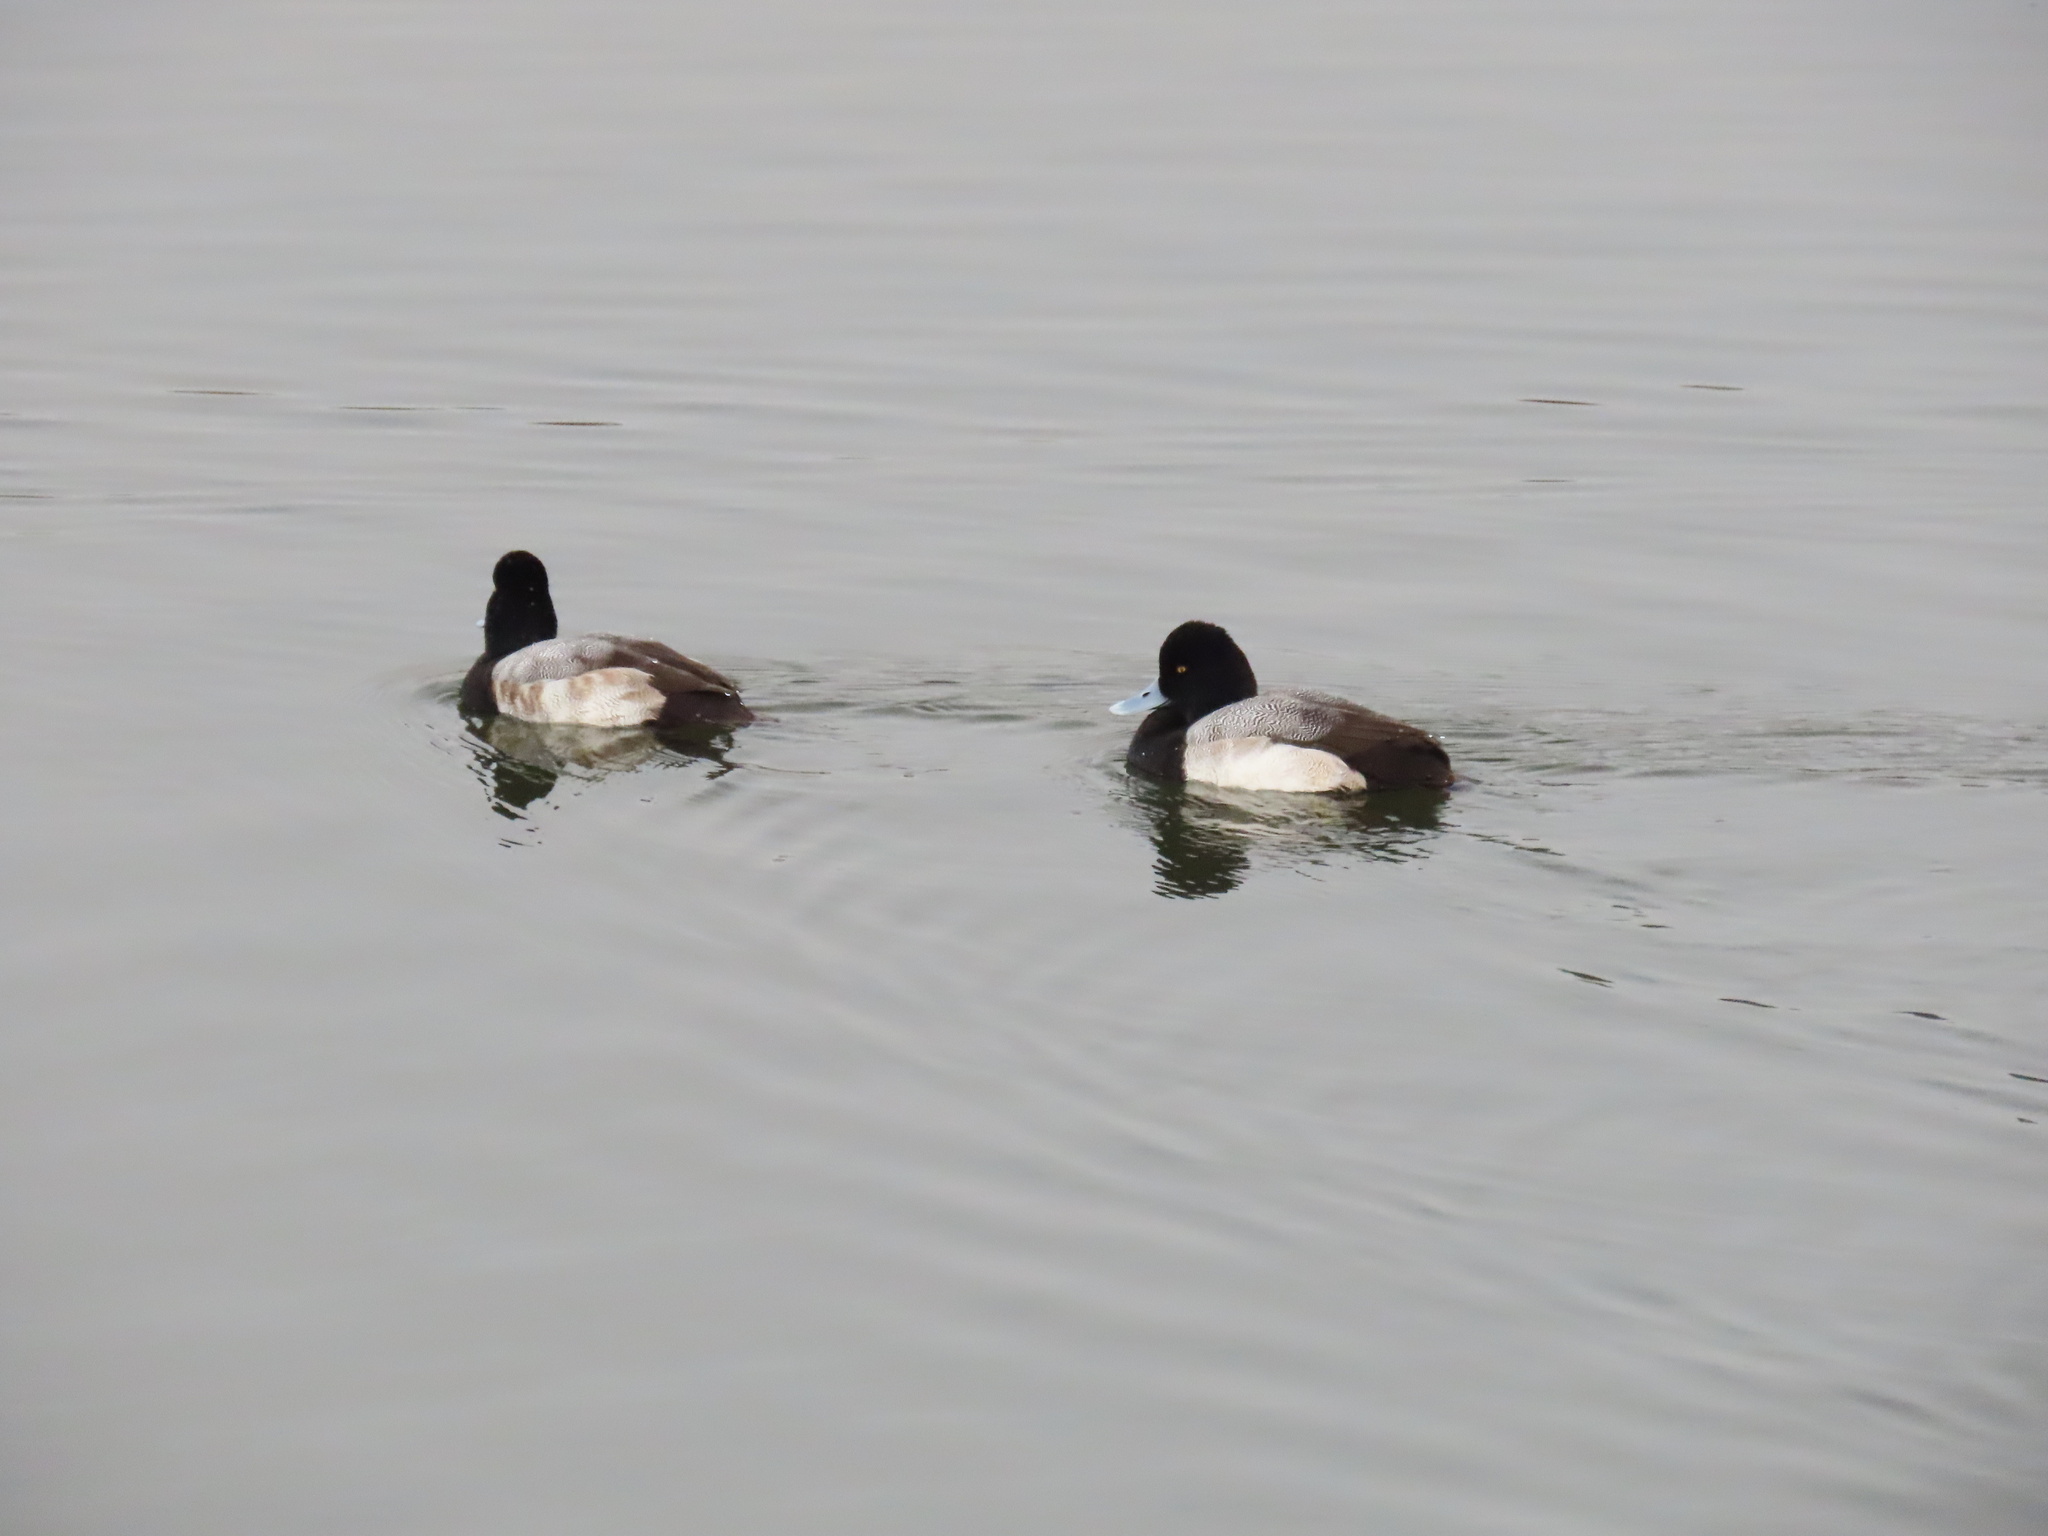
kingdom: Animalia
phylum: Chordata
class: Aves
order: Anseriformes
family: Anatidae
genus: Aythya
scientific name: Aythya affinis
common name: Lesser scaup
